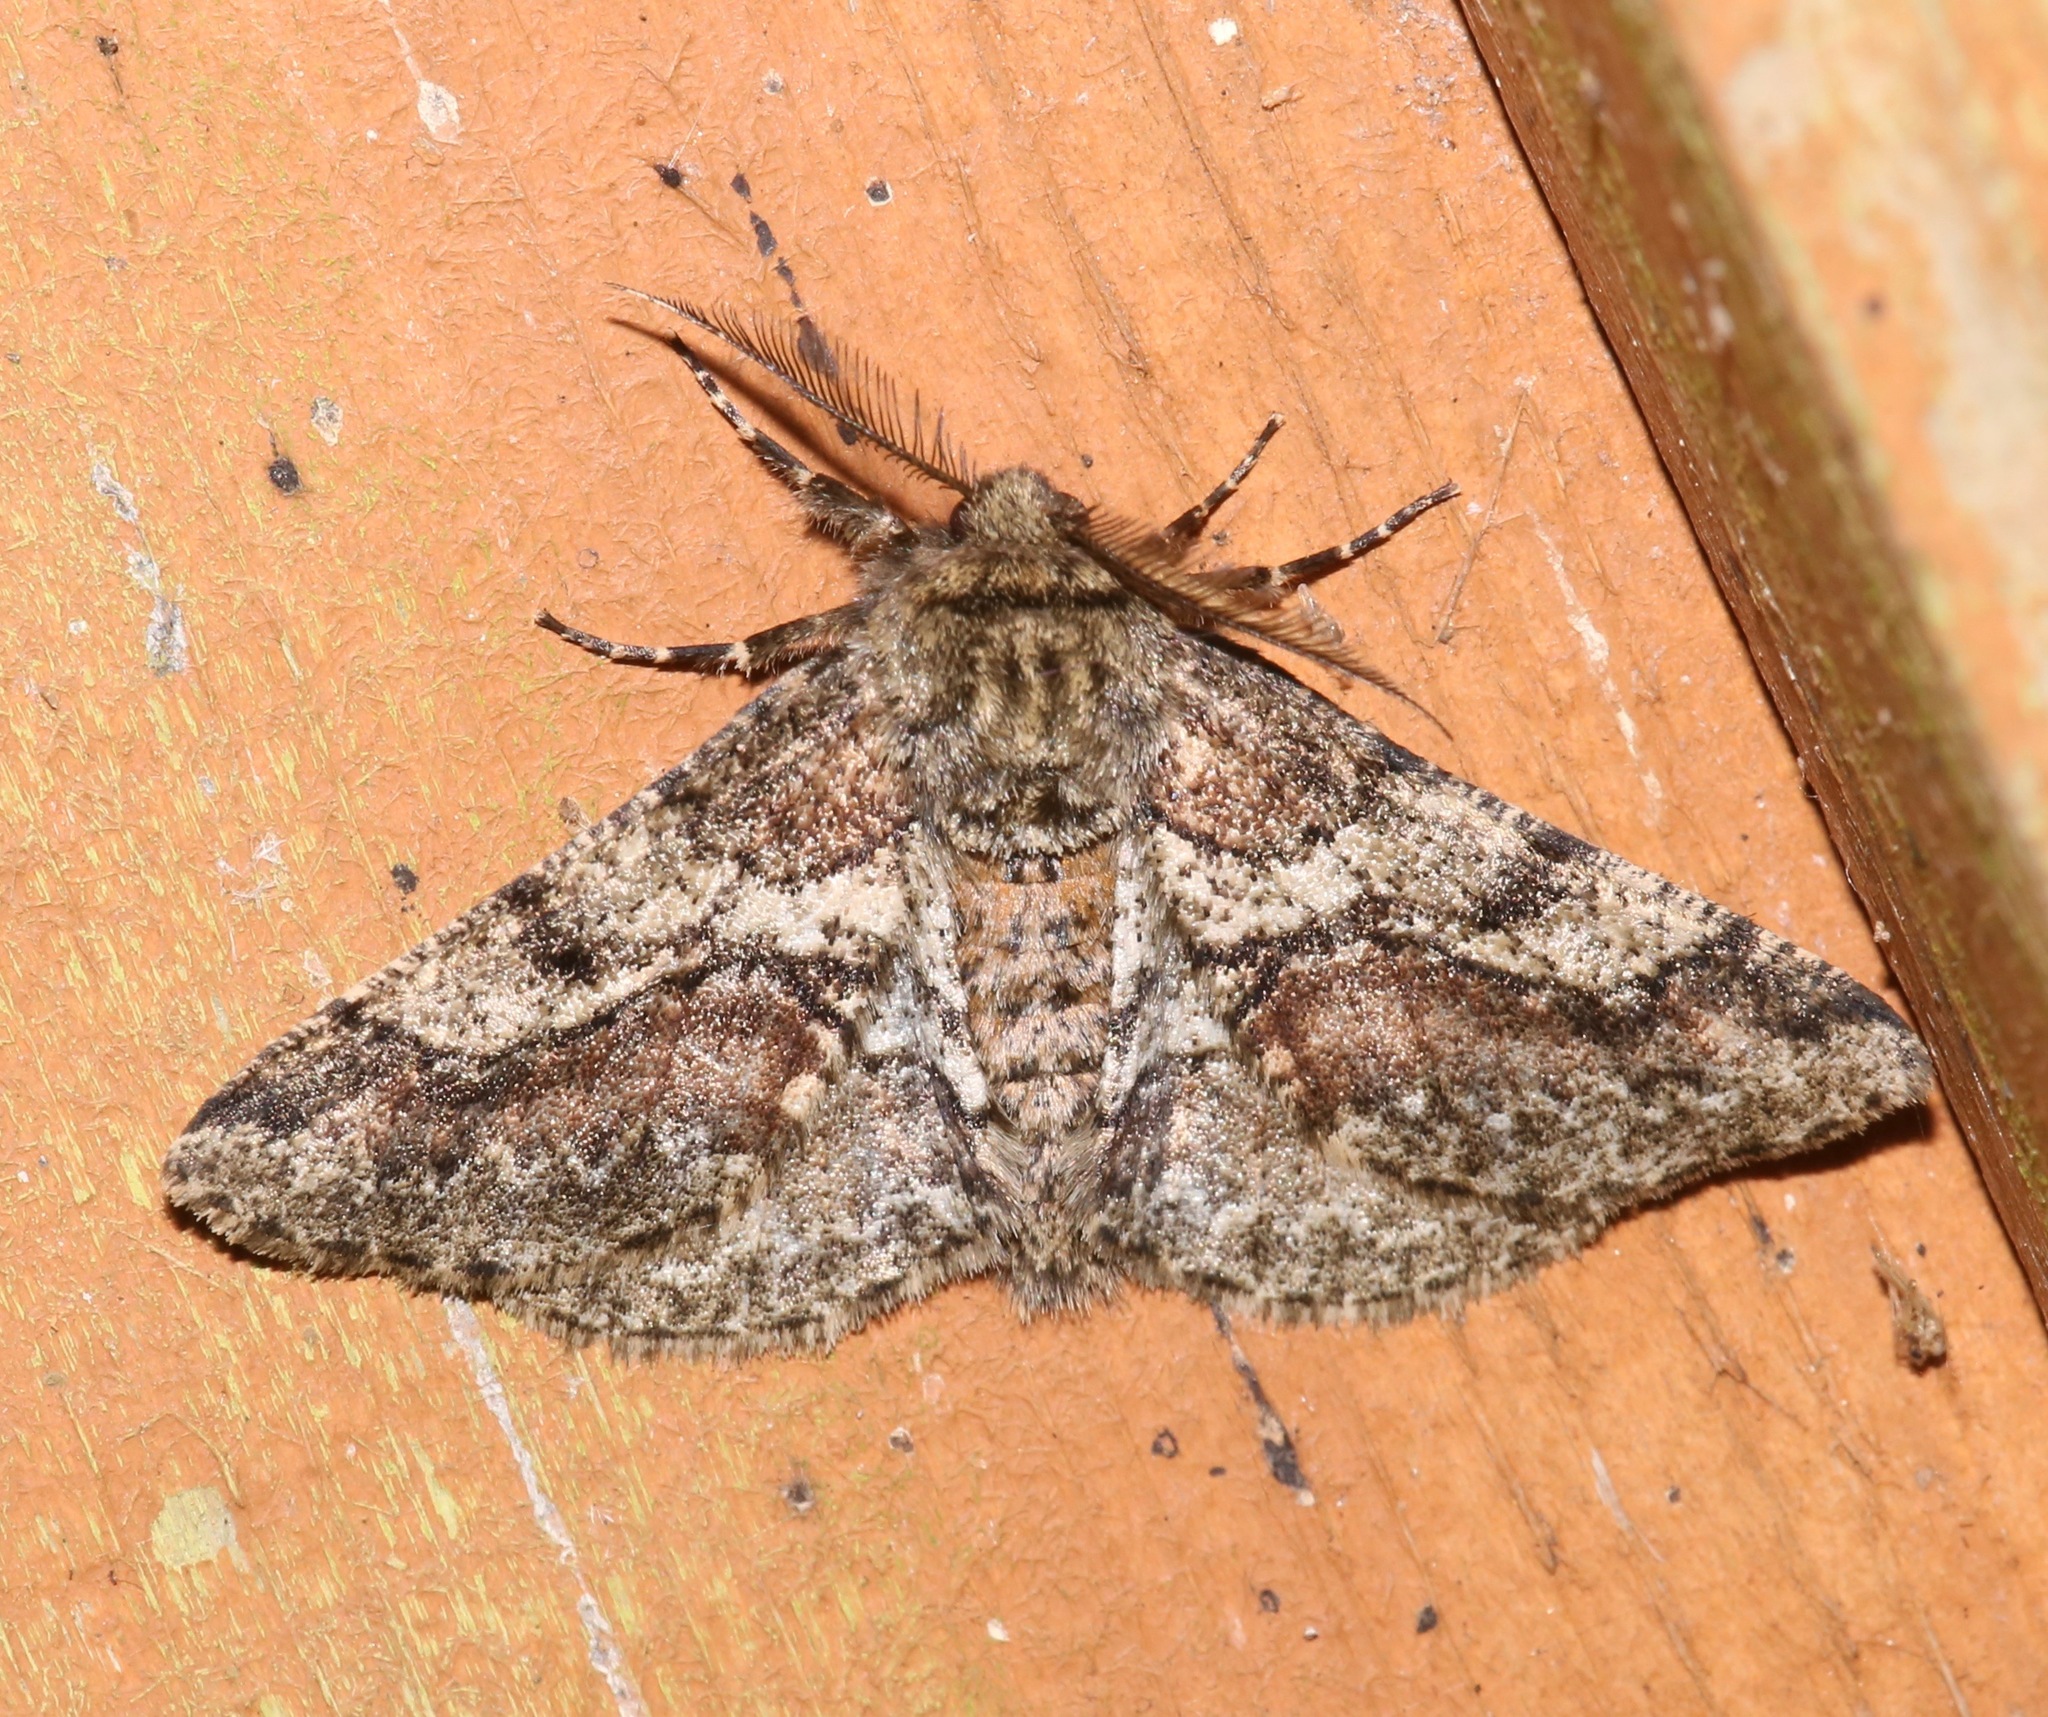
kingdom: Animalia
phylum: Arthropoda
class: Insecta
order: Lepidoptera
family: Geometridae
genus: Lycia
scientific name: Lycia ypsilon
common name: Wooly gray
